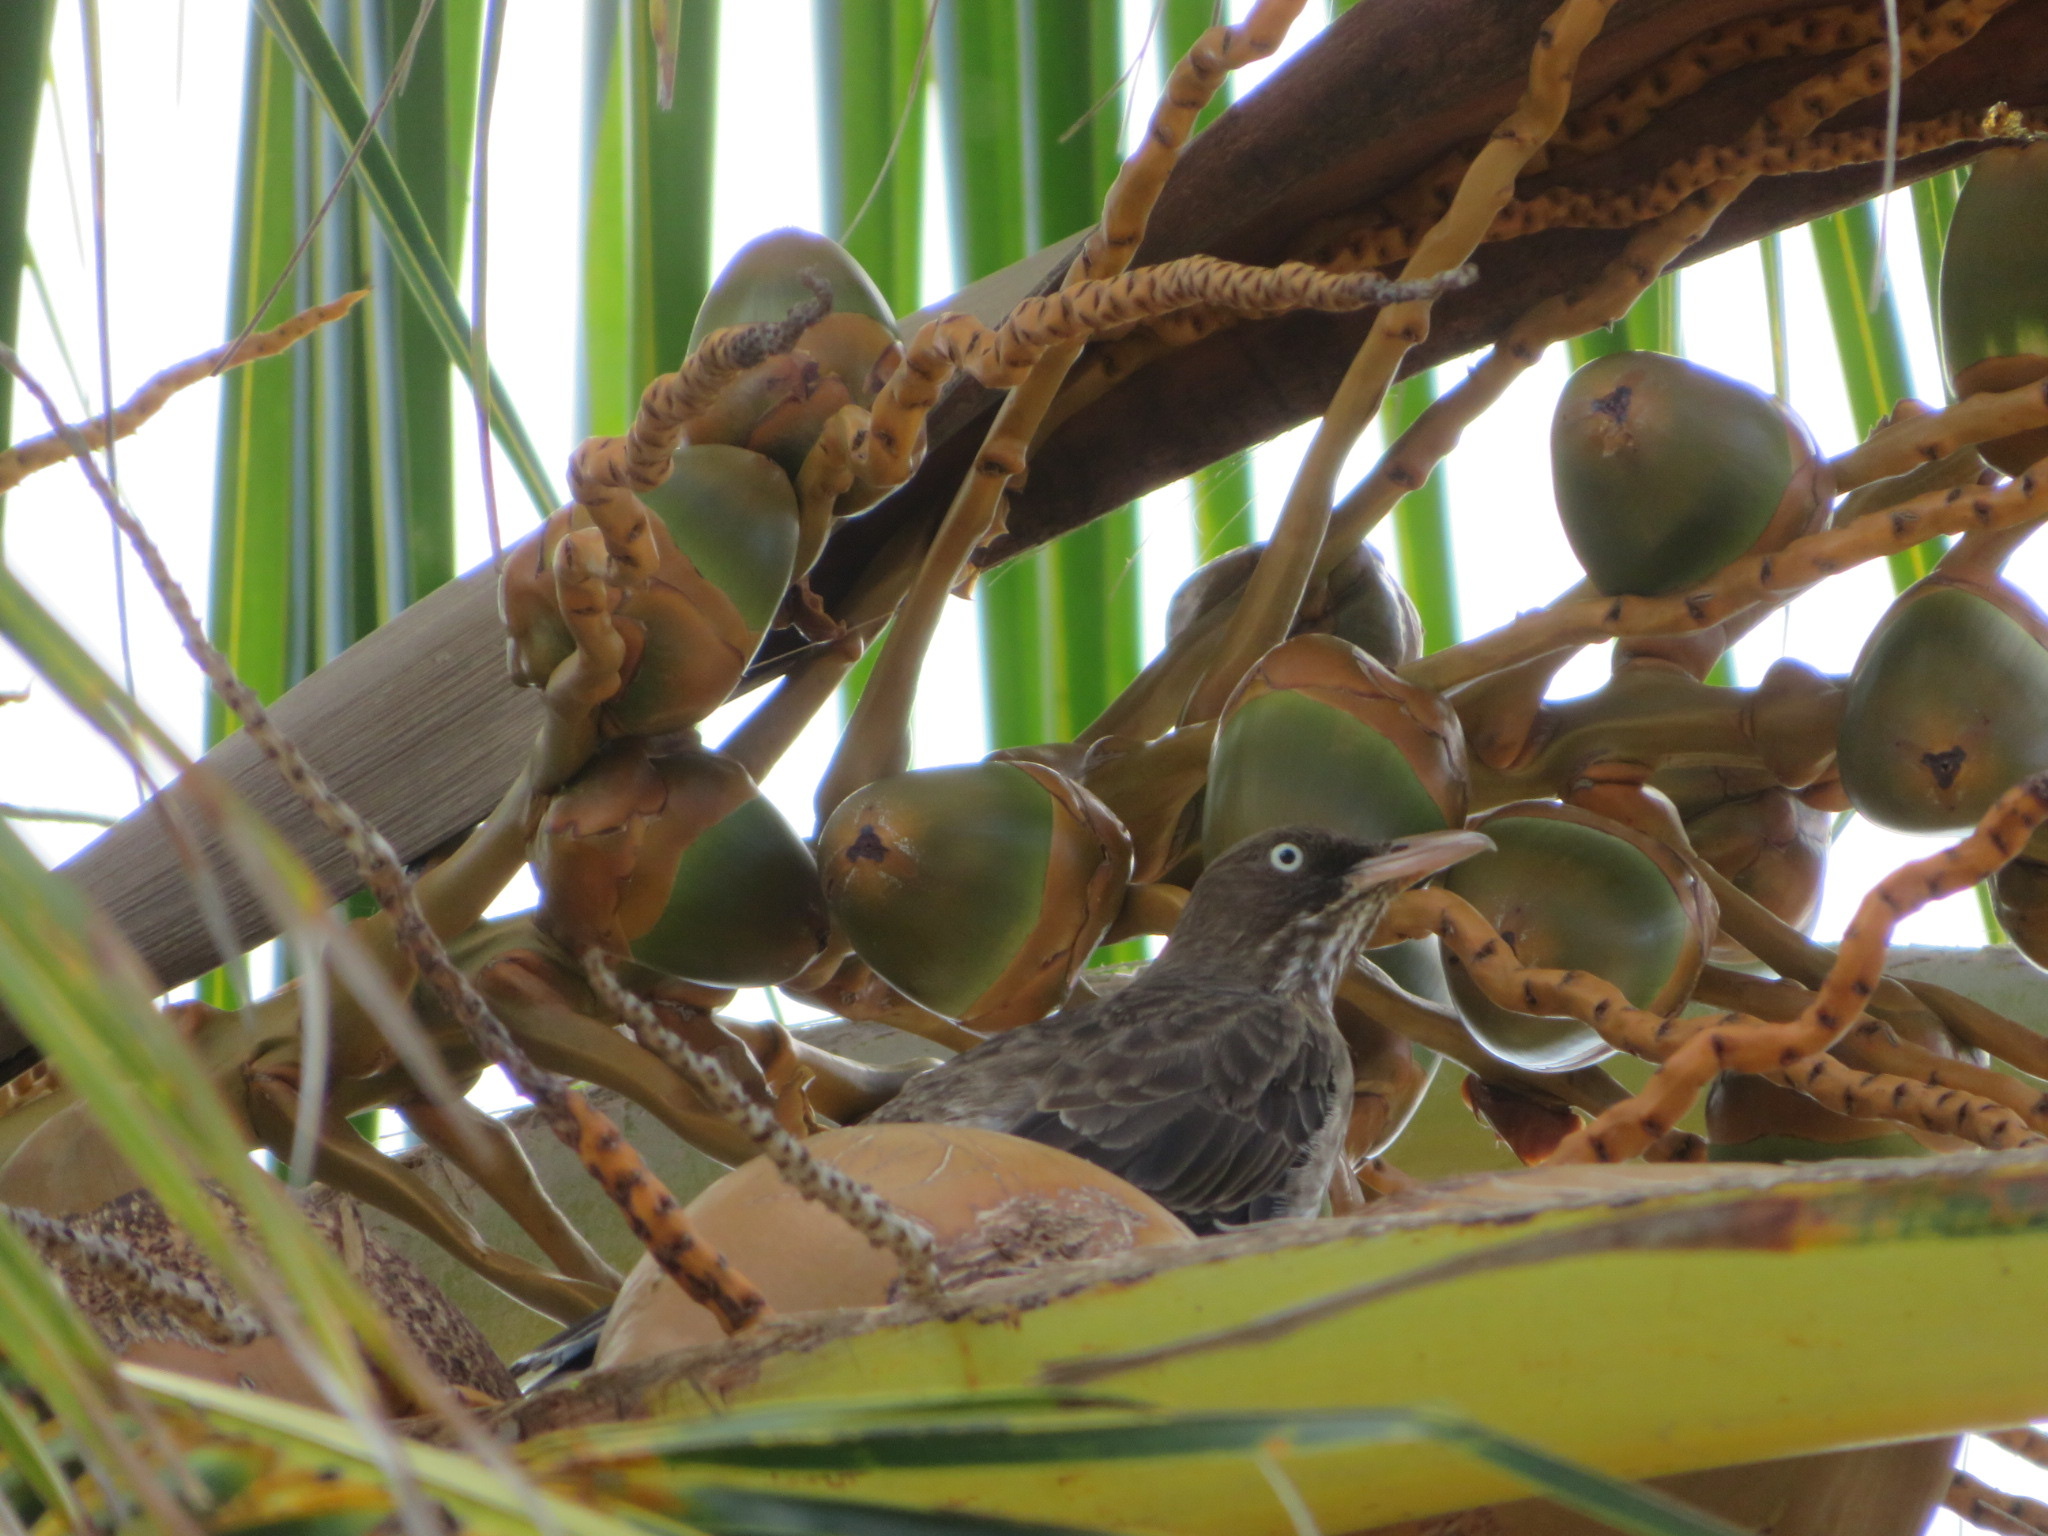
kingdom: Animalia
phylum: Chordata
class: Aves
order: Passeriformes
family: Mimidae
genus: Margarops
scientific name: Margarops fuscatus
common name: Pearly-eyed thrasher
